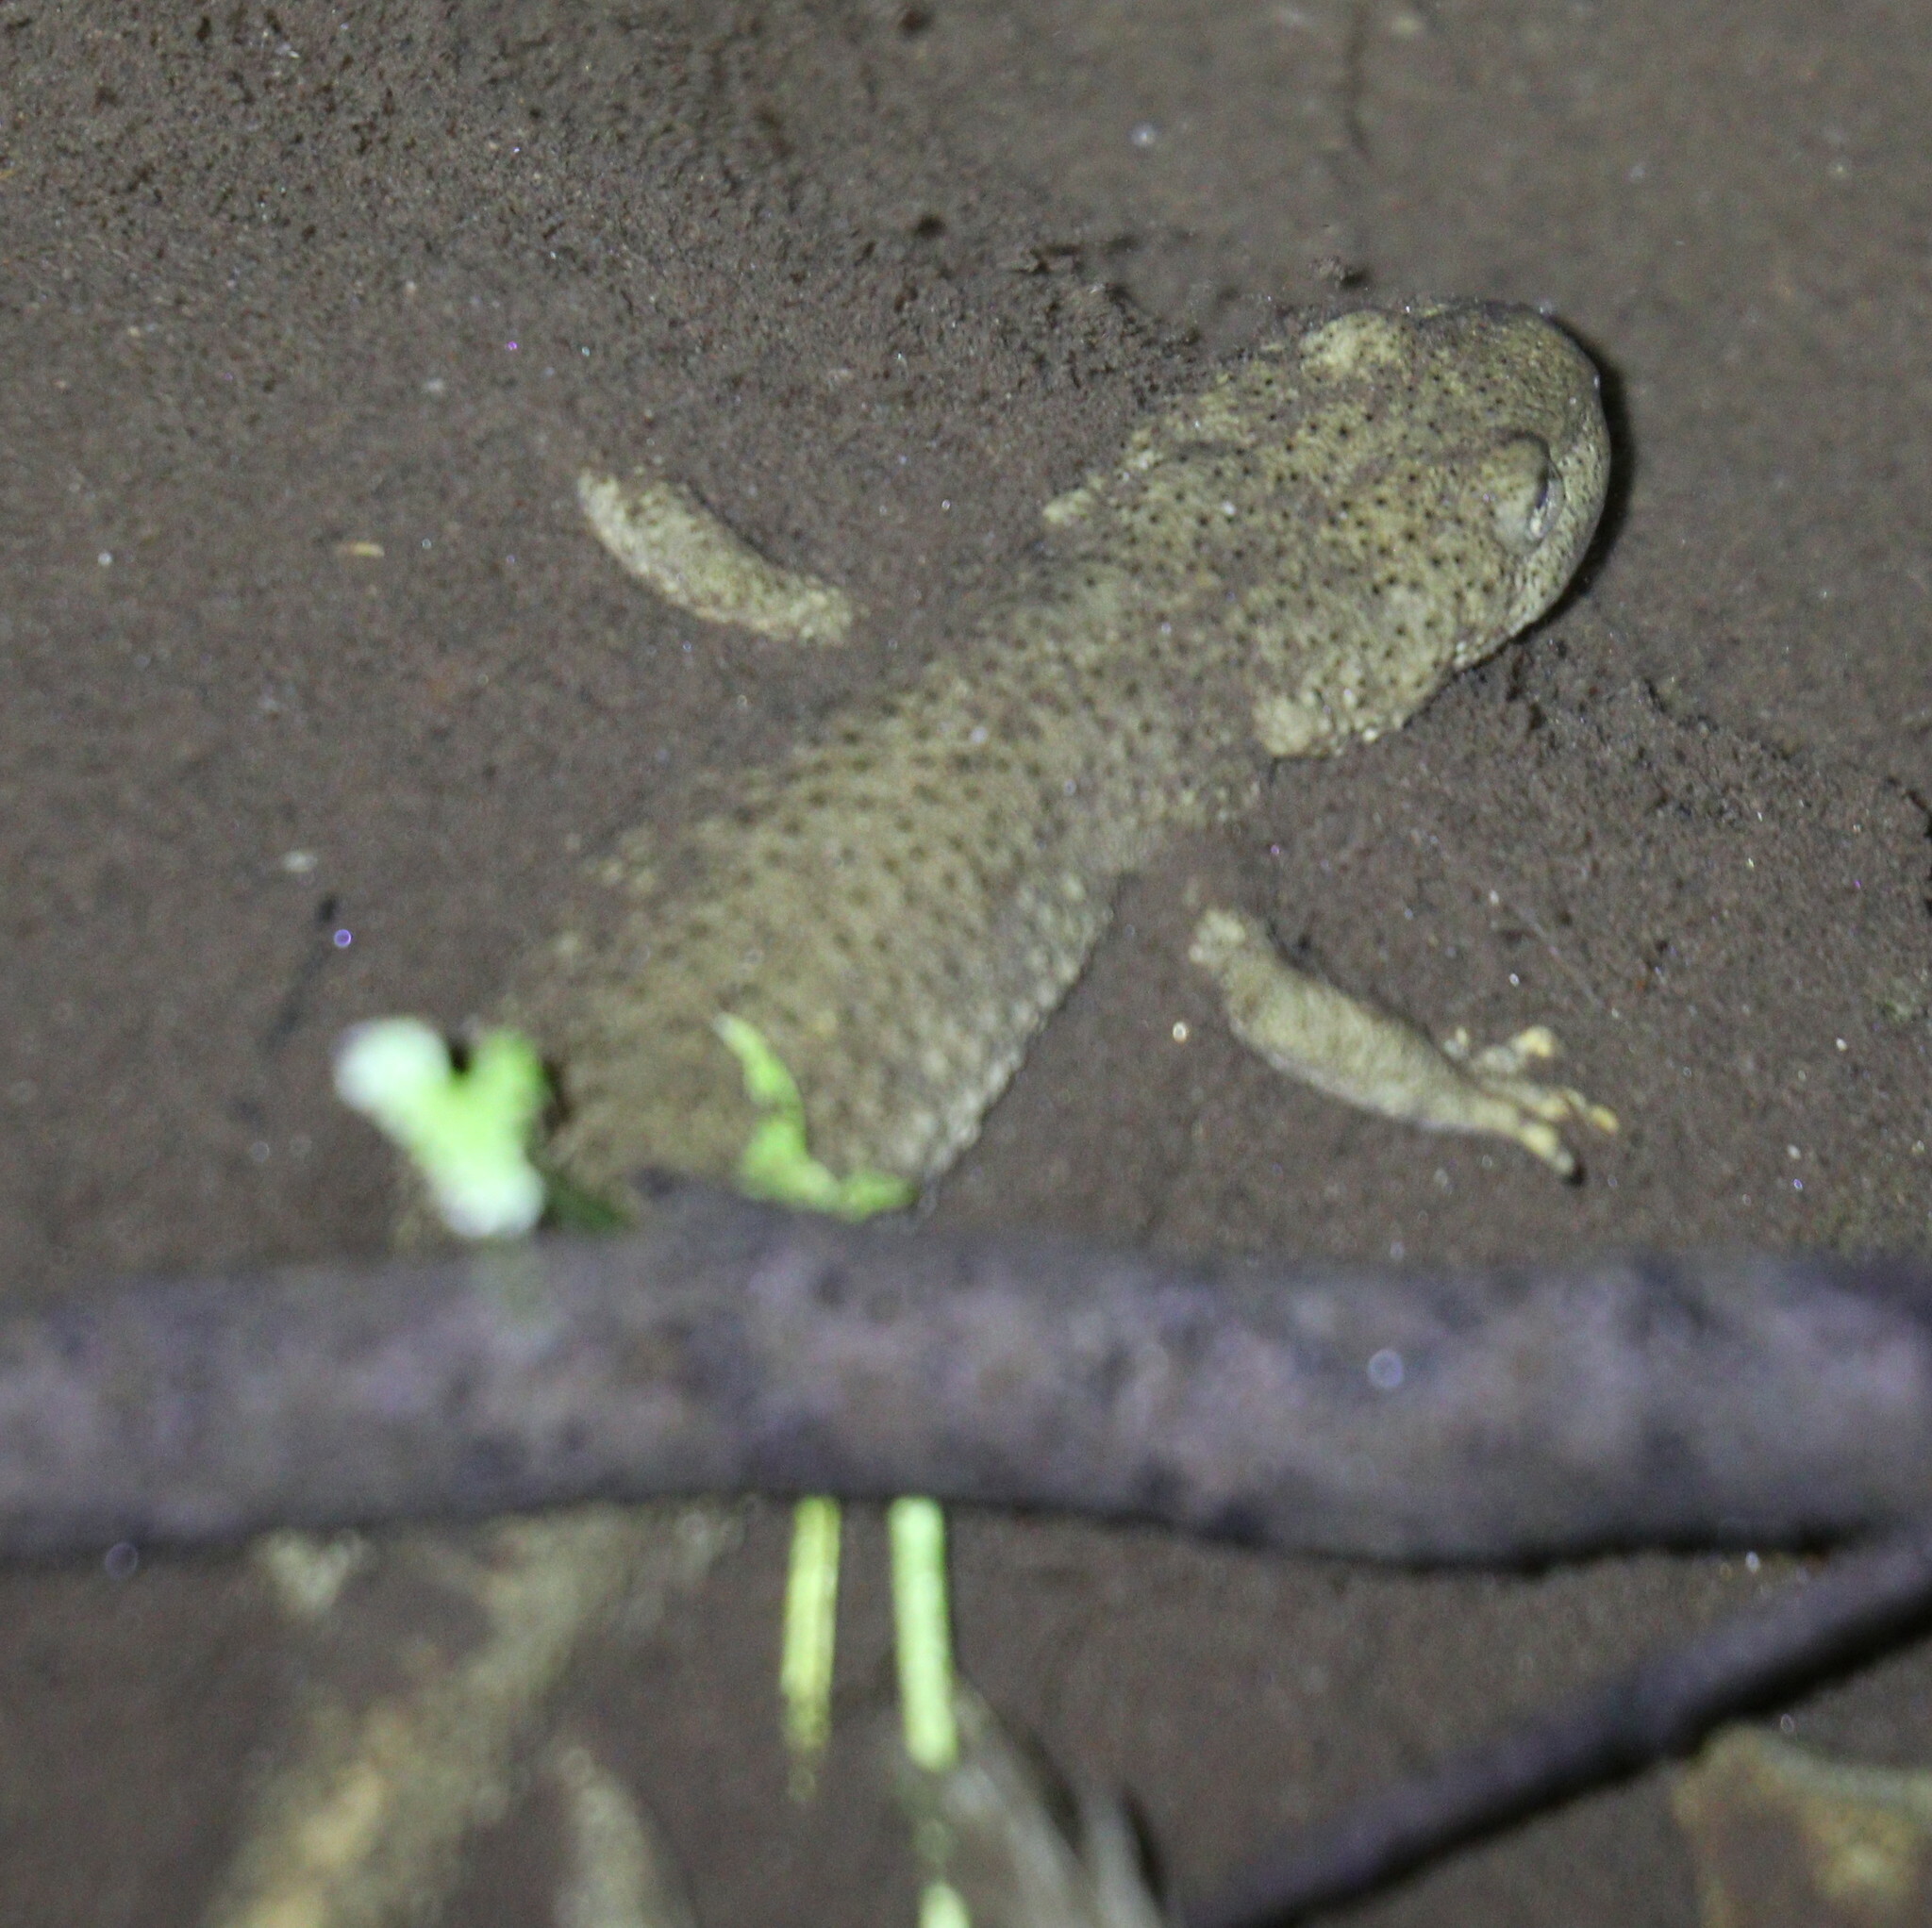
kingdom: Animalia
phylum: Chordata
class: Amphibia
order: Caudata
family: Salamandridae
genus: Calotriton
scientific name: Calotriton asper
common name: Pyrenean brook salamander
